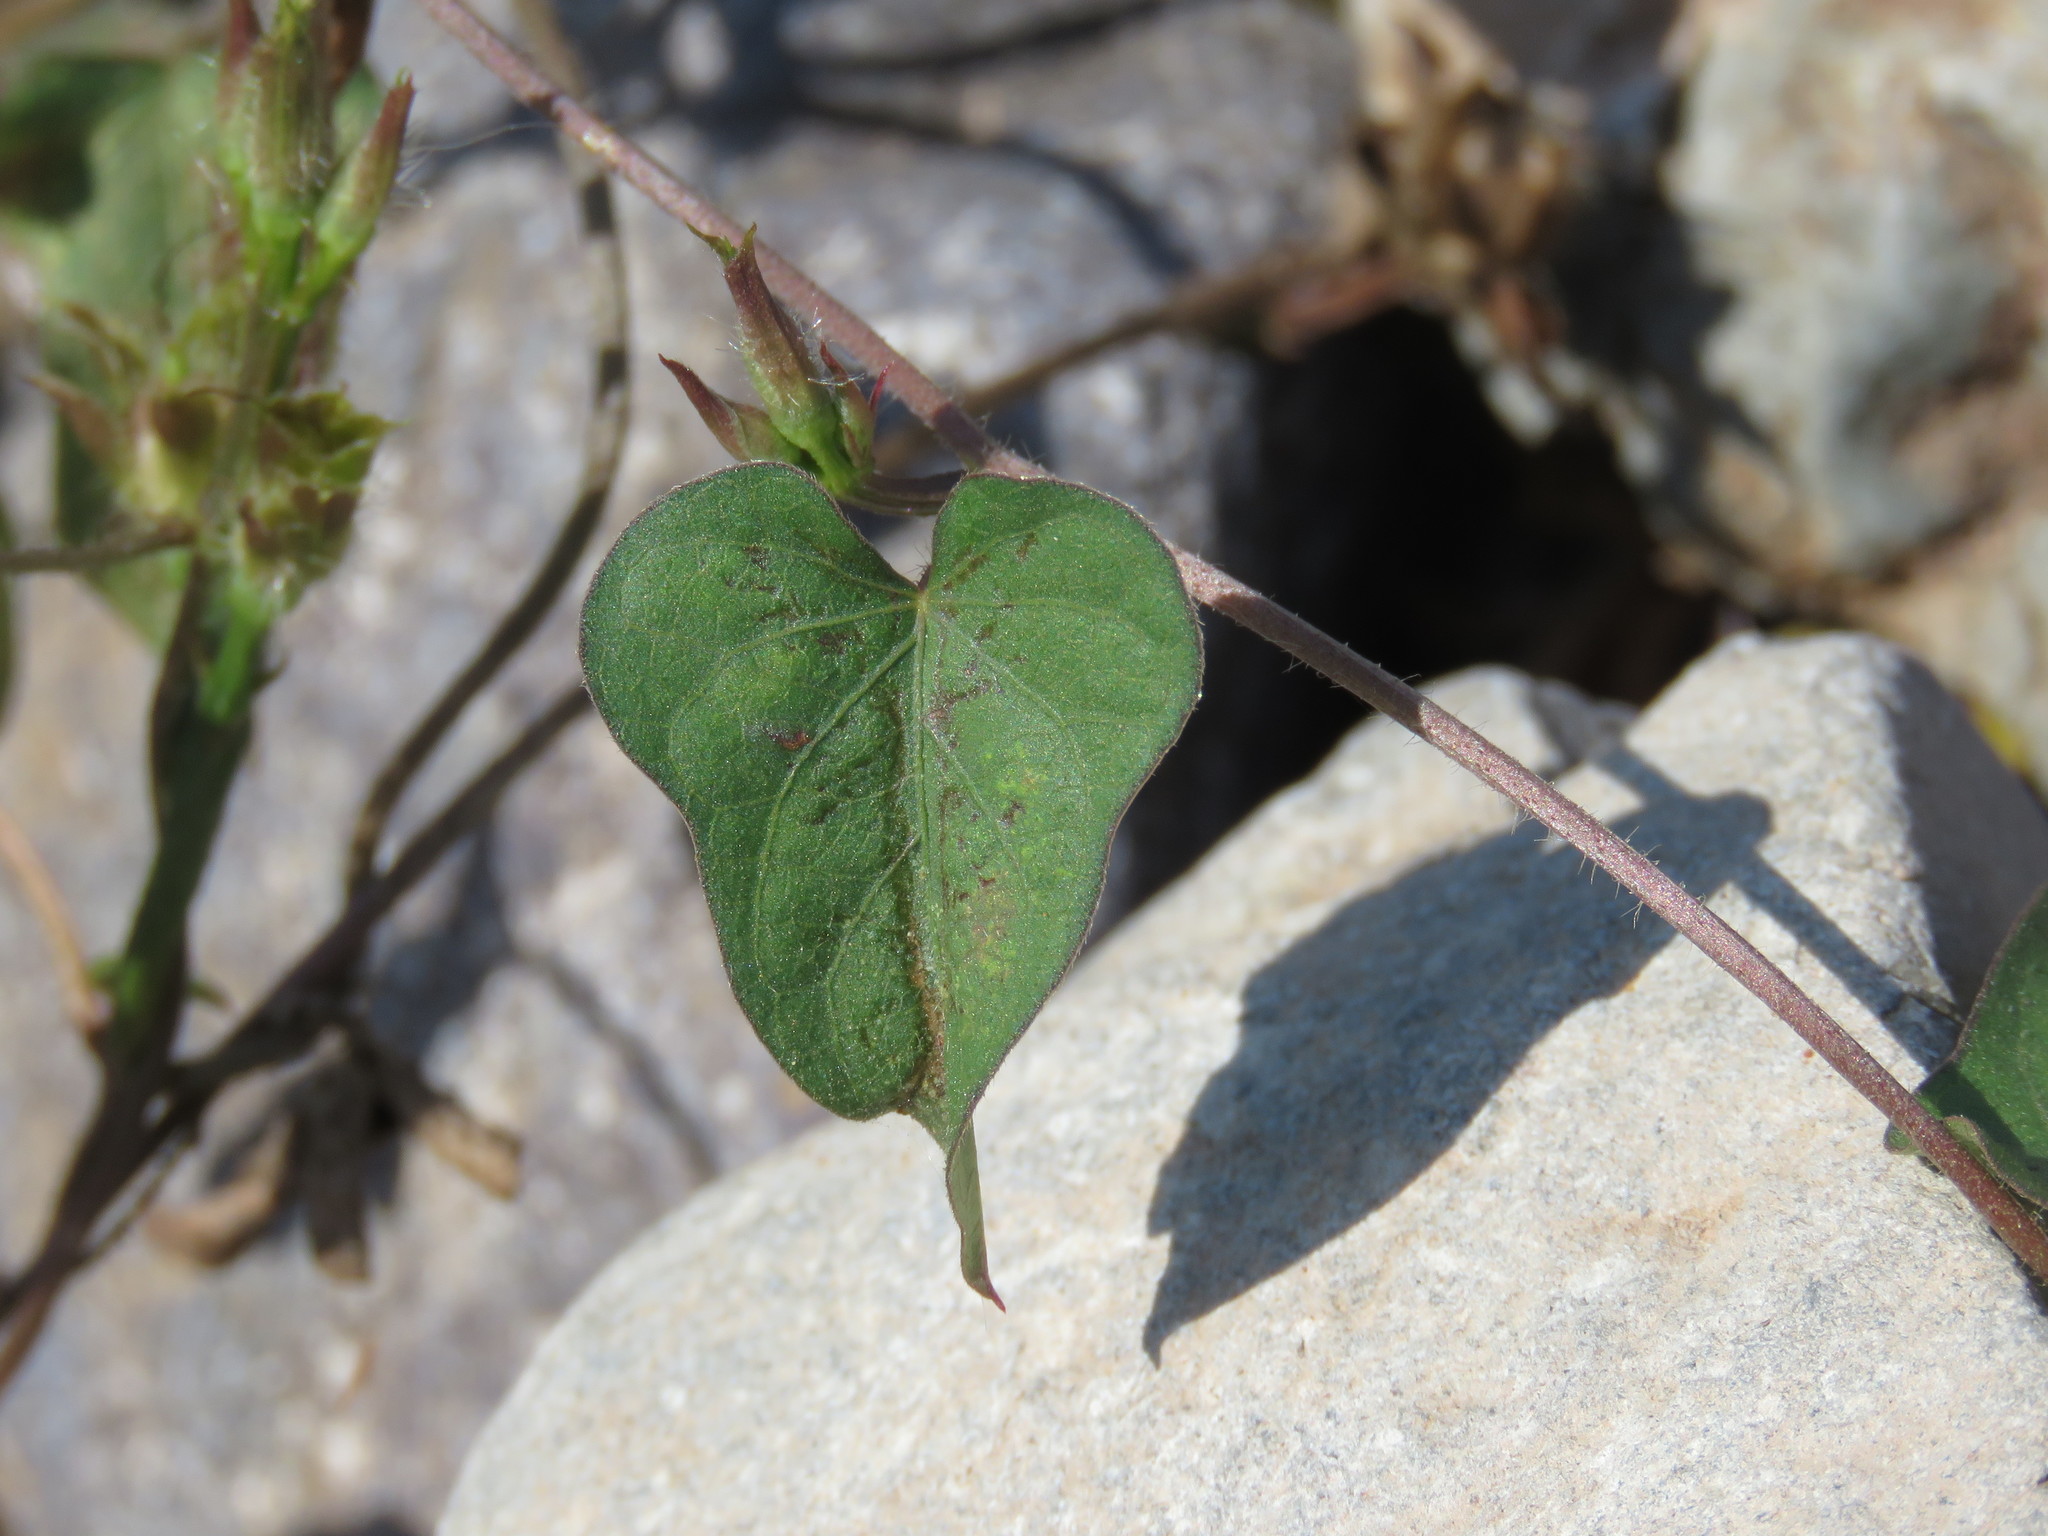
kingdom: Plantae
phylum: Tracheophyta
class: Magnoliopsida
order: Solanales
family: Convolvulaceae
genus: Ipomoea
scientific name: Ipomoea triloba
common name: Little-bell
